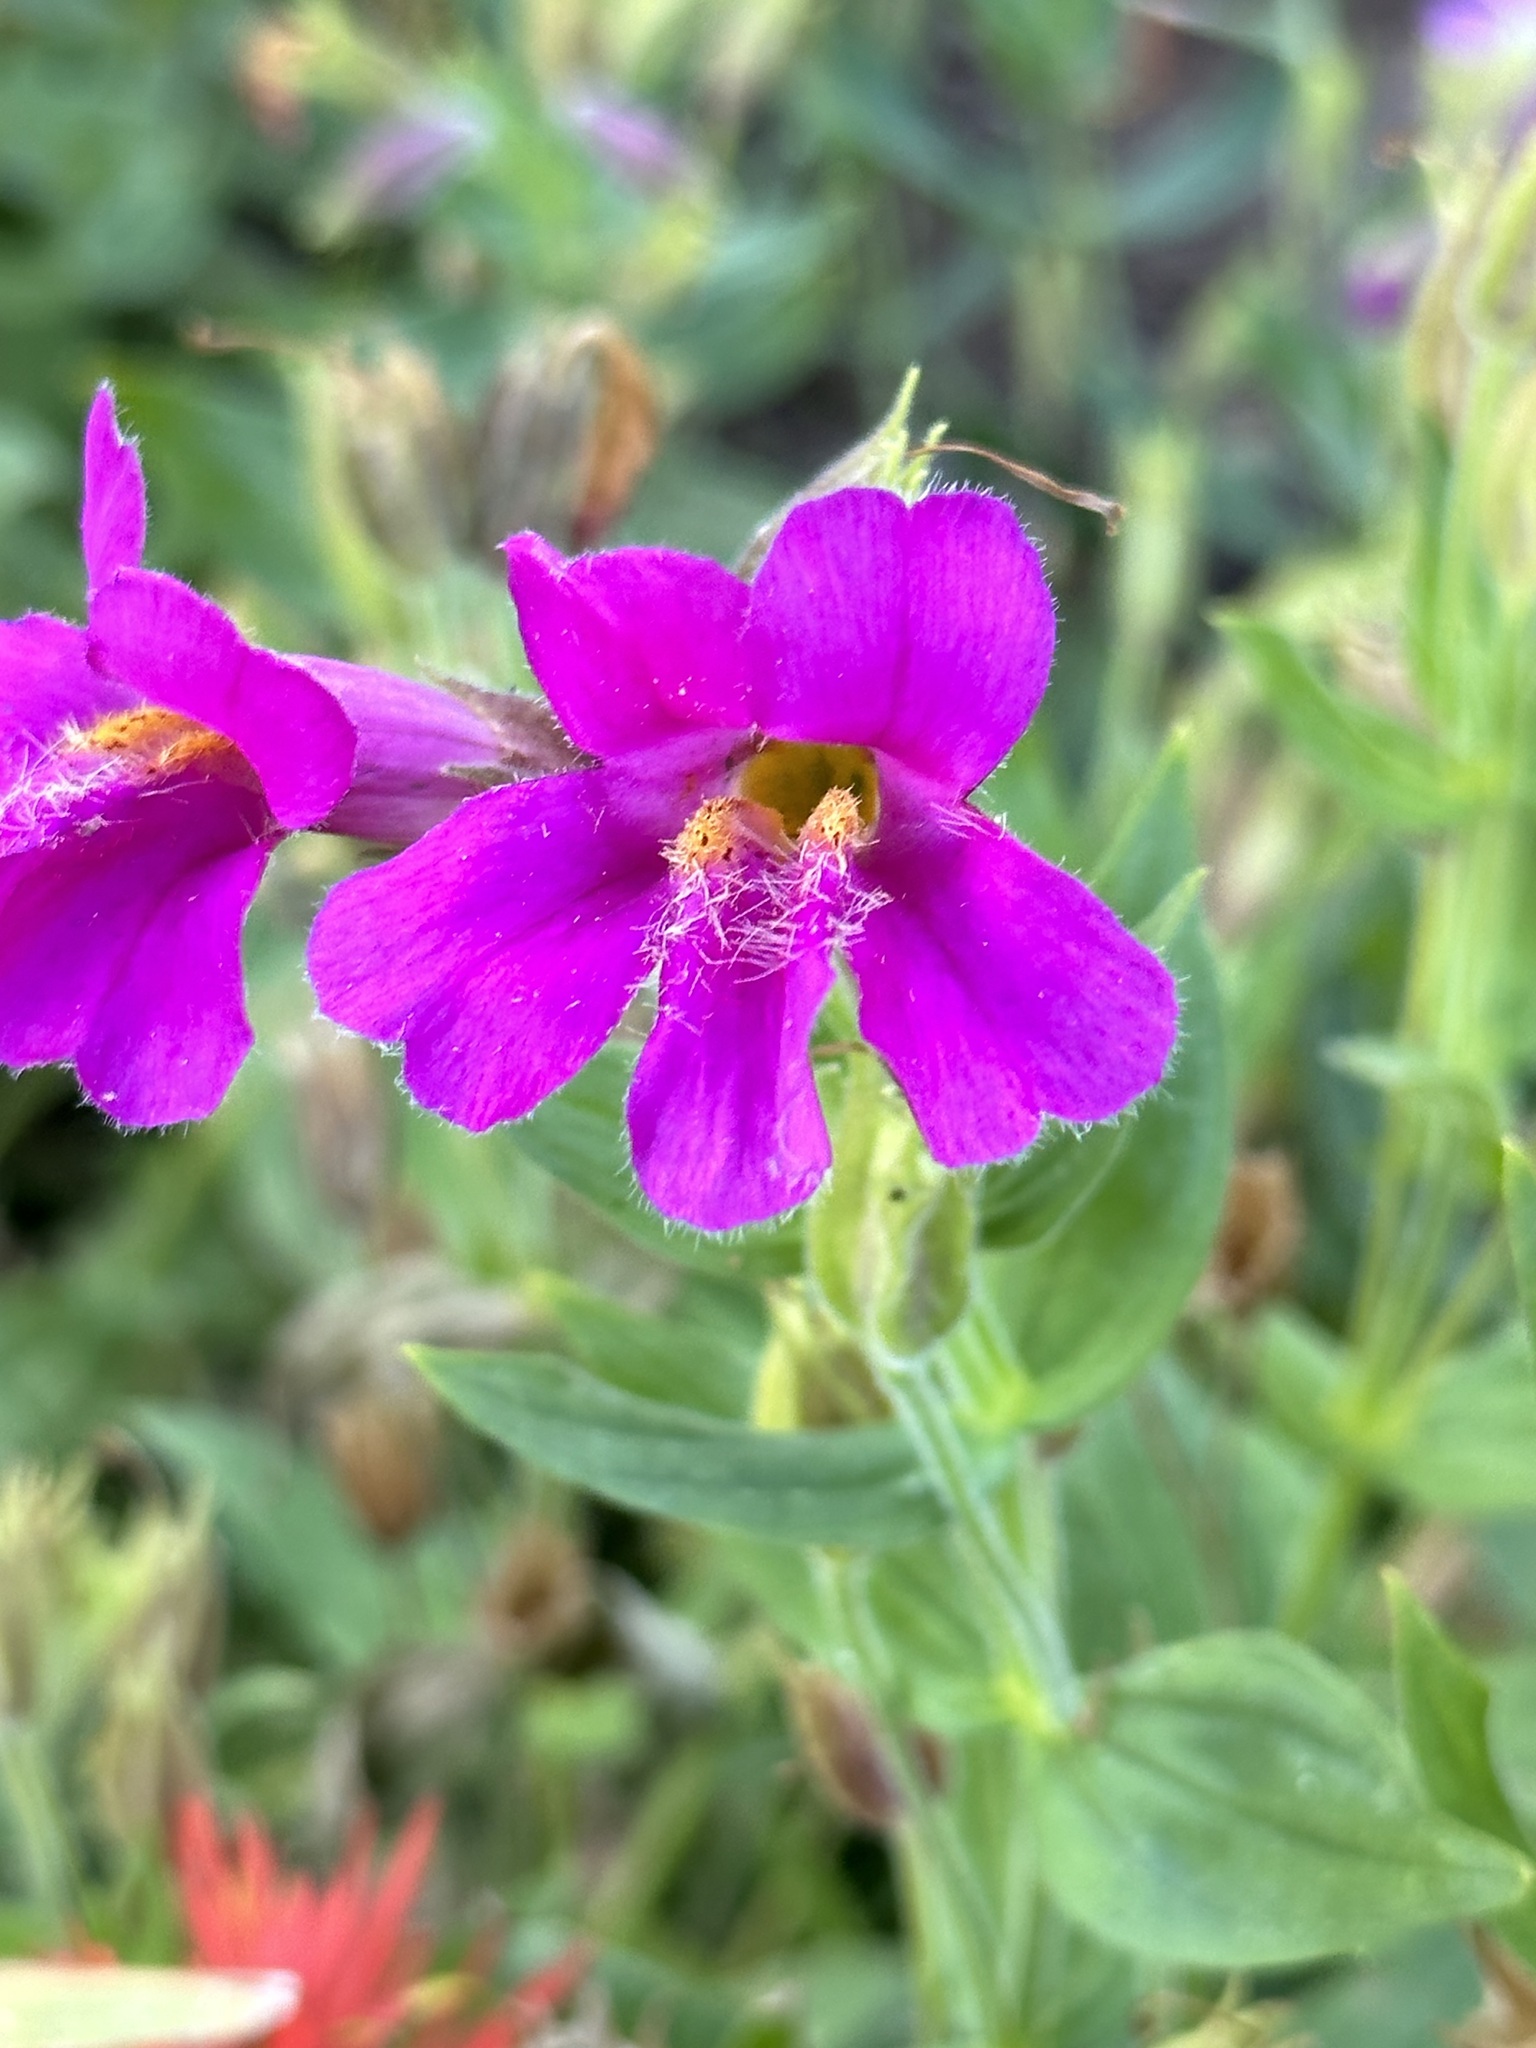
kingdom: Plantae
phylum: Tracheophyta
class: Magnoliopsida
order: Lamiales
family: Phrymaceae
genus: Erythranthe
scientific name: Erythranthe lewisii
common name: Lewis's monkey-flower
